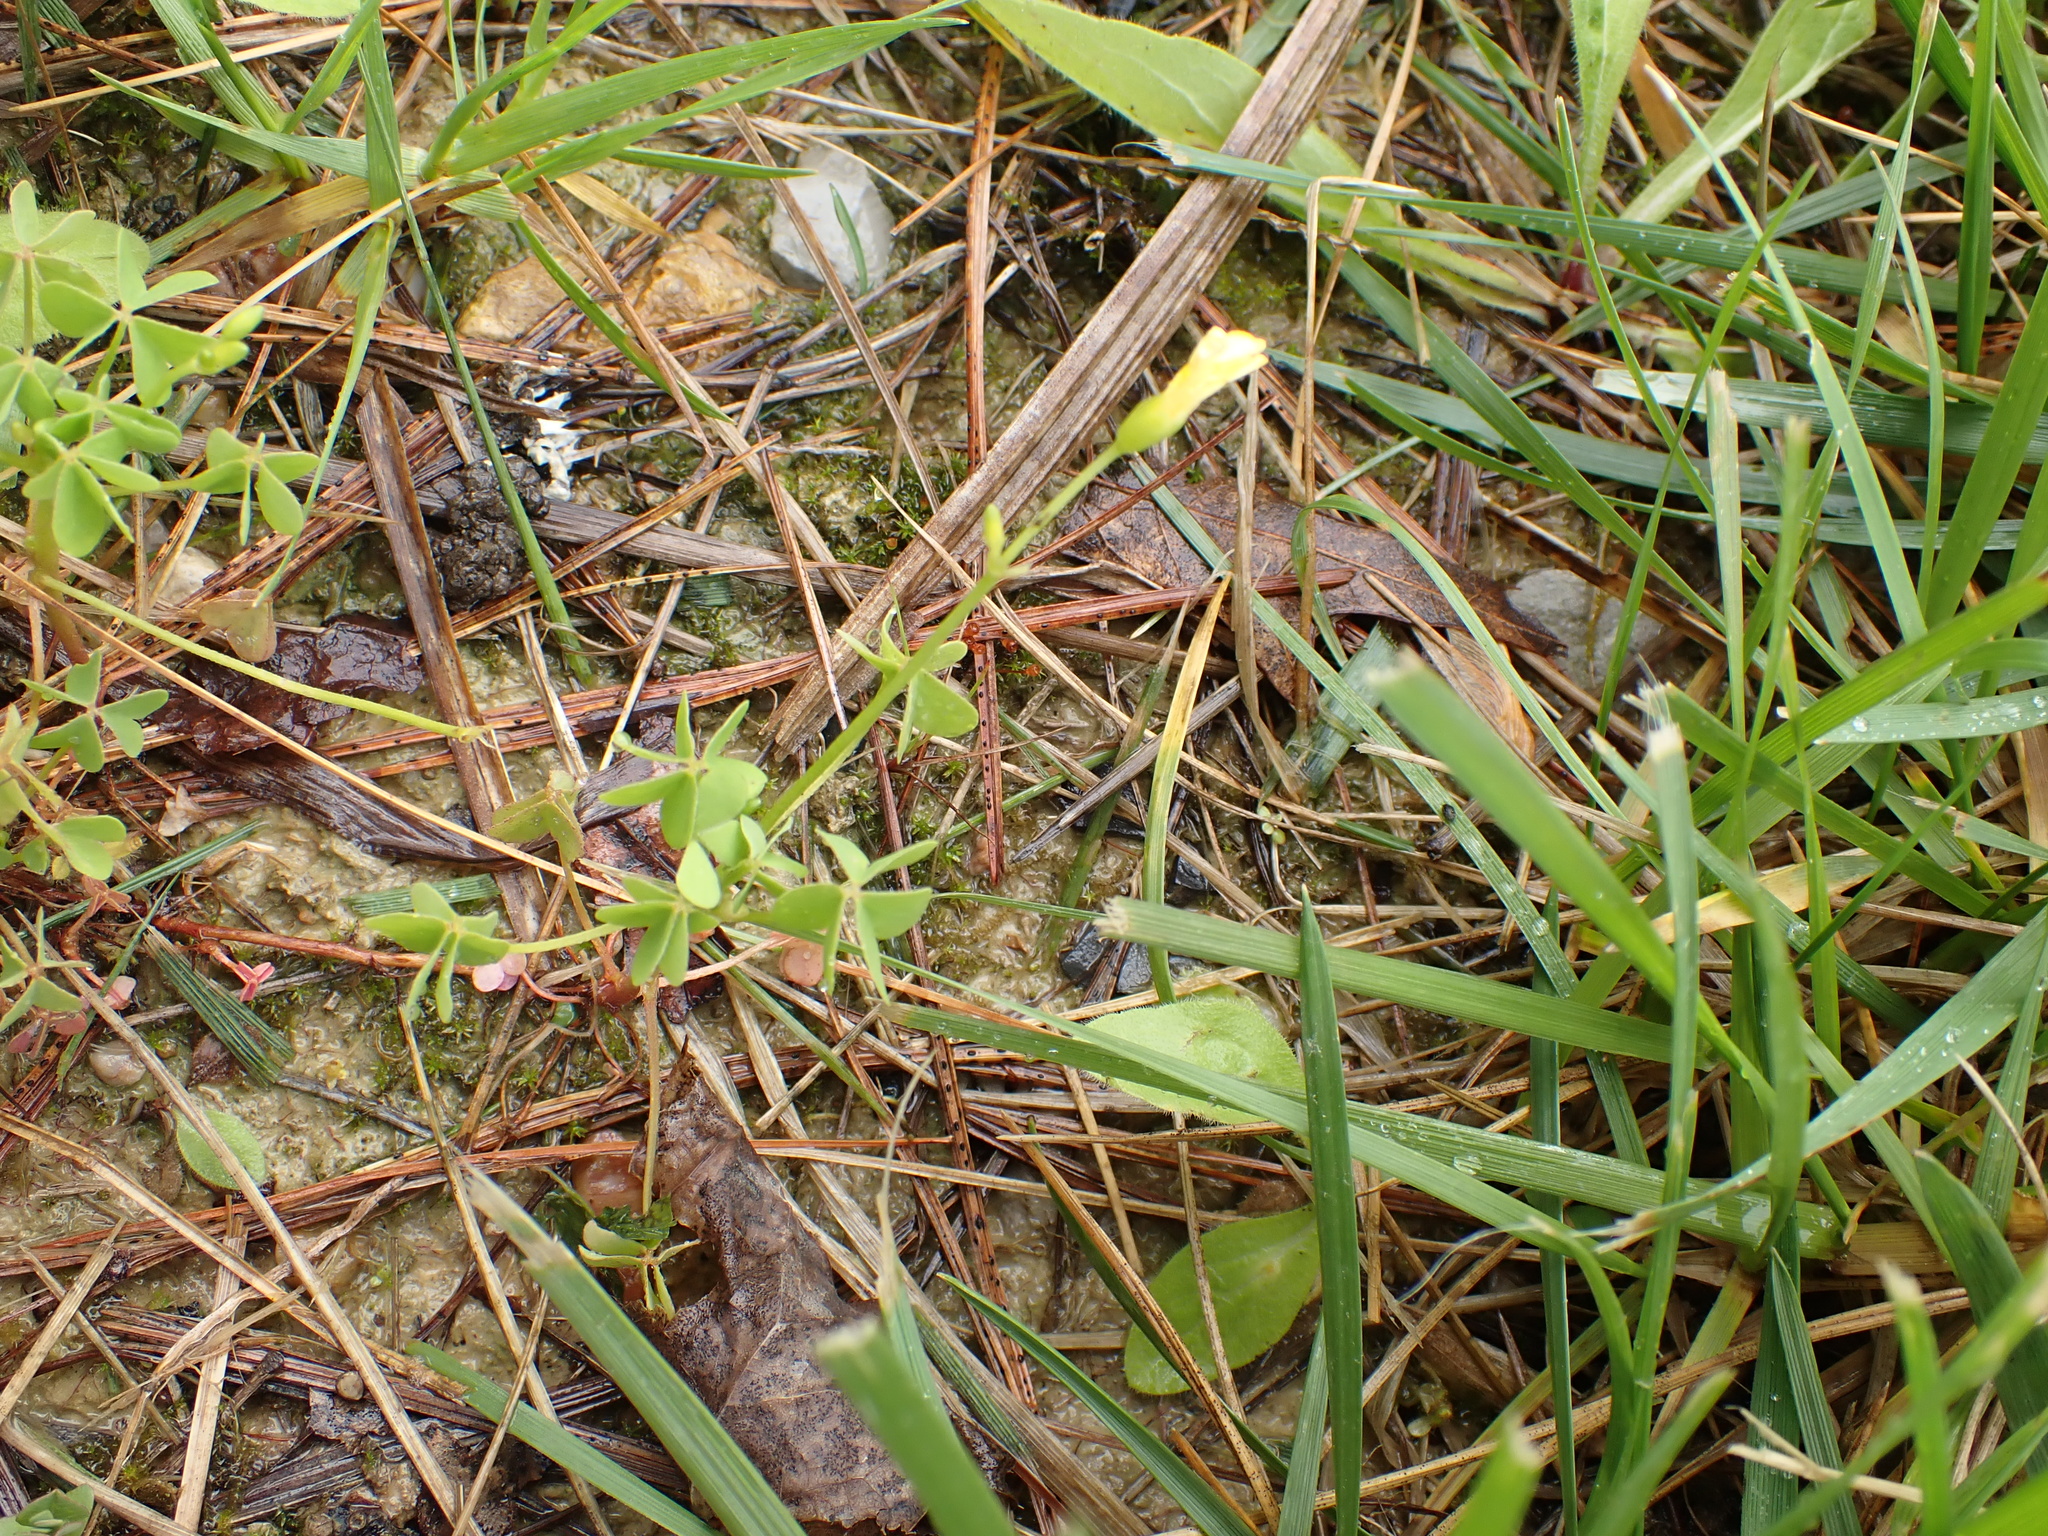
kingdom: Plantae
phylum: Tracheophyta
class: Magnoliopsida
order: Oxalidales
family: Oxalidaceae
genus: Oxalis
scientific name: Oxalis stricta
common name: Upright yellow-sorrel
